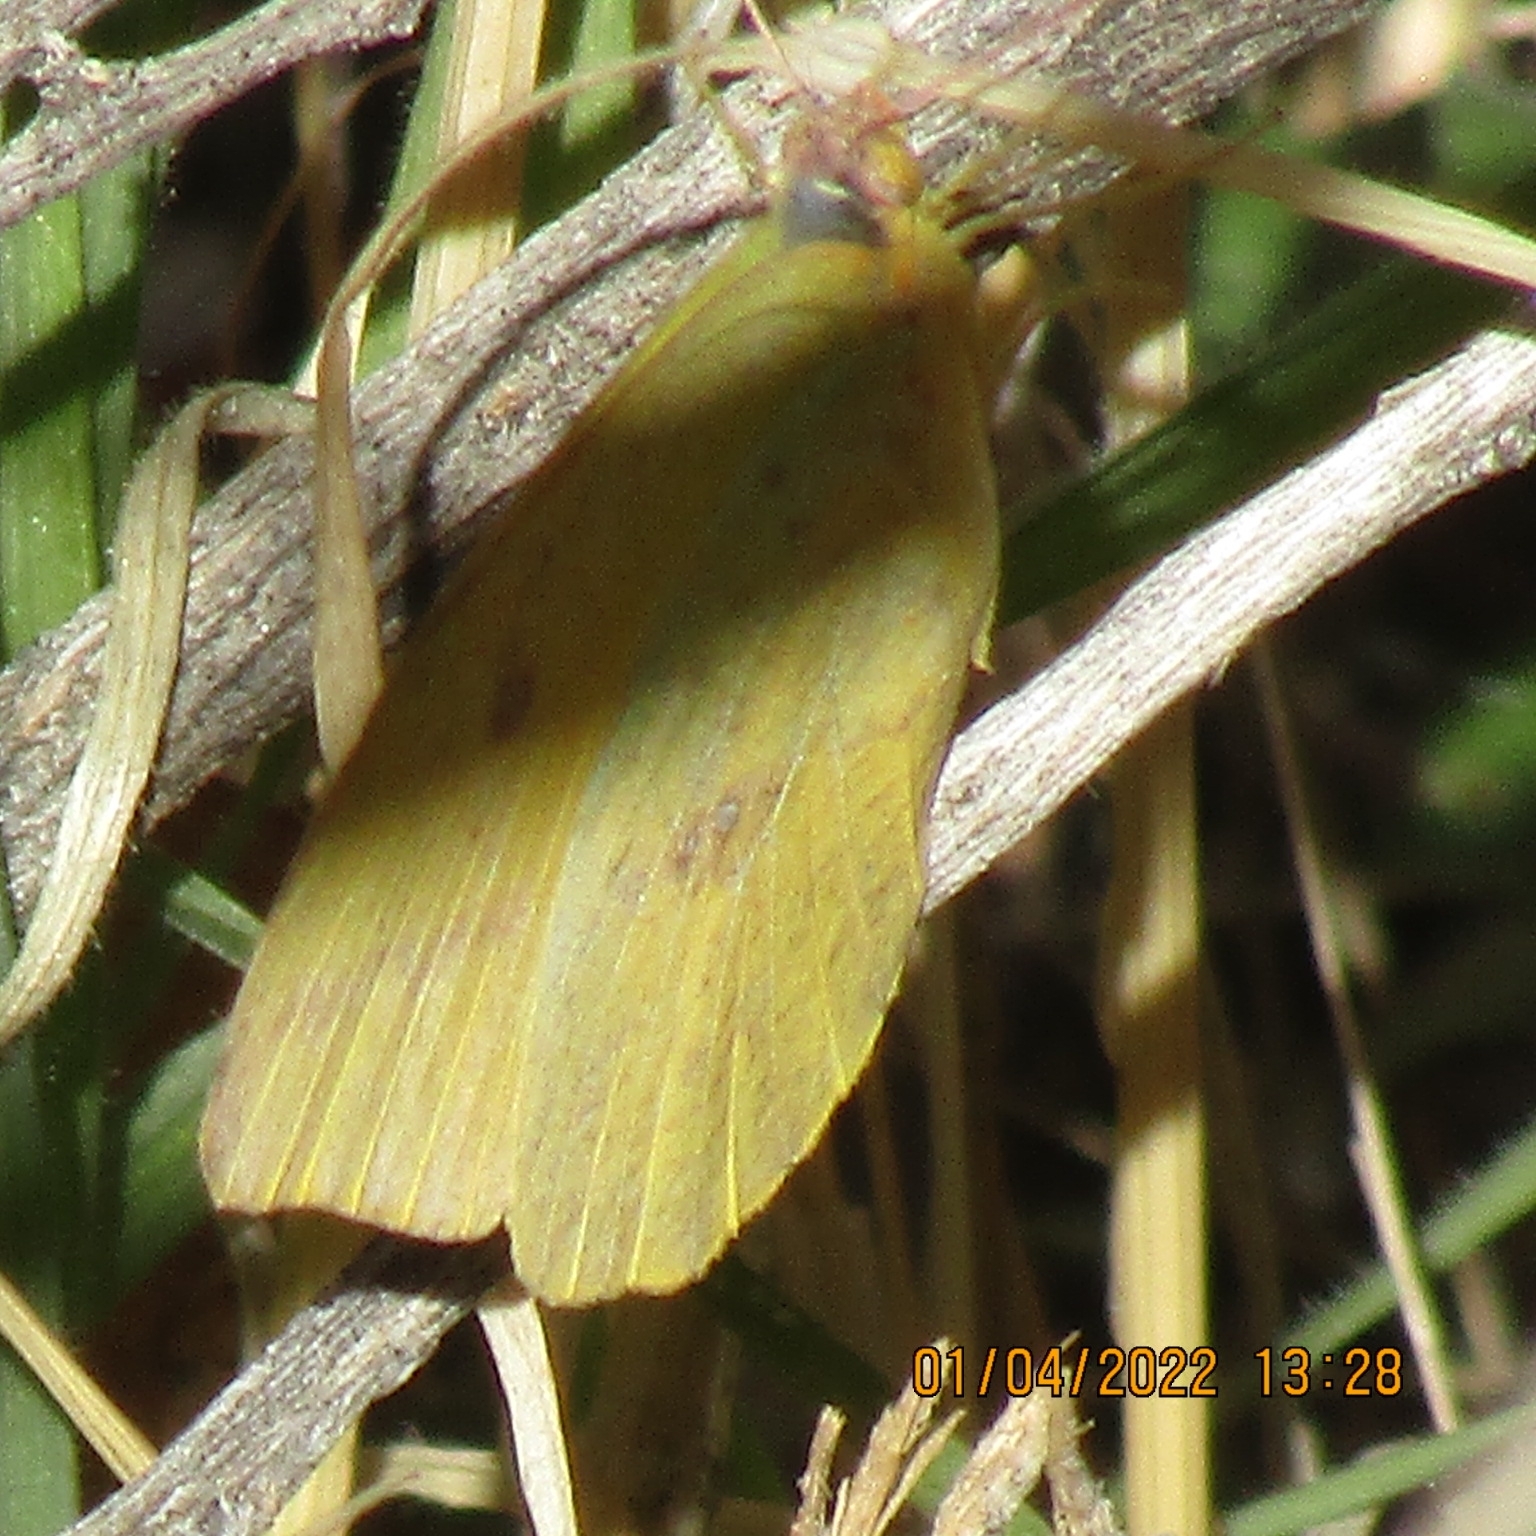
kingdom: Animalia
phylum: Arthropoda
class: Insecta
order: Lepidoptera
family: Pieridae
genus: Phoebis
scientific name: Phoebis agarithe
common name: Large orange sulphur
